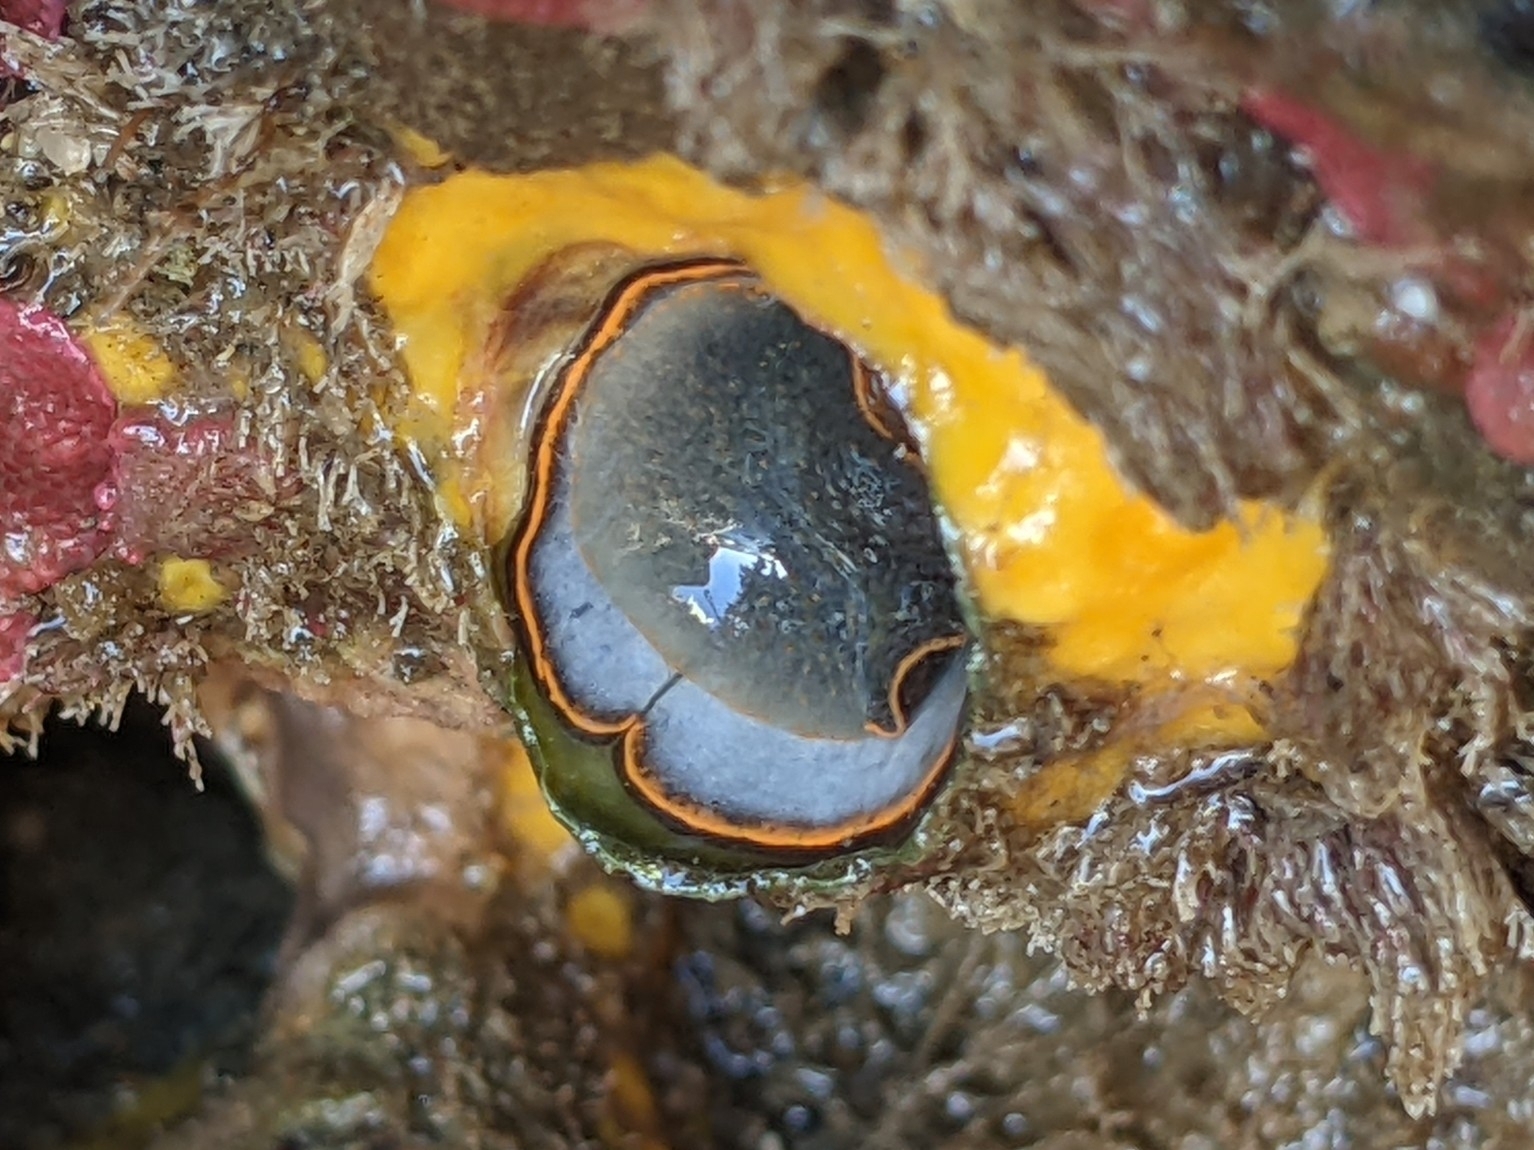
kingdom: Animalia
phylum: Mollusca
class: Gastropoda
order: Littorinimorpha
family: Vermetidae
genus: Thylacodes
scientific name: Thylacodes squamigerus
